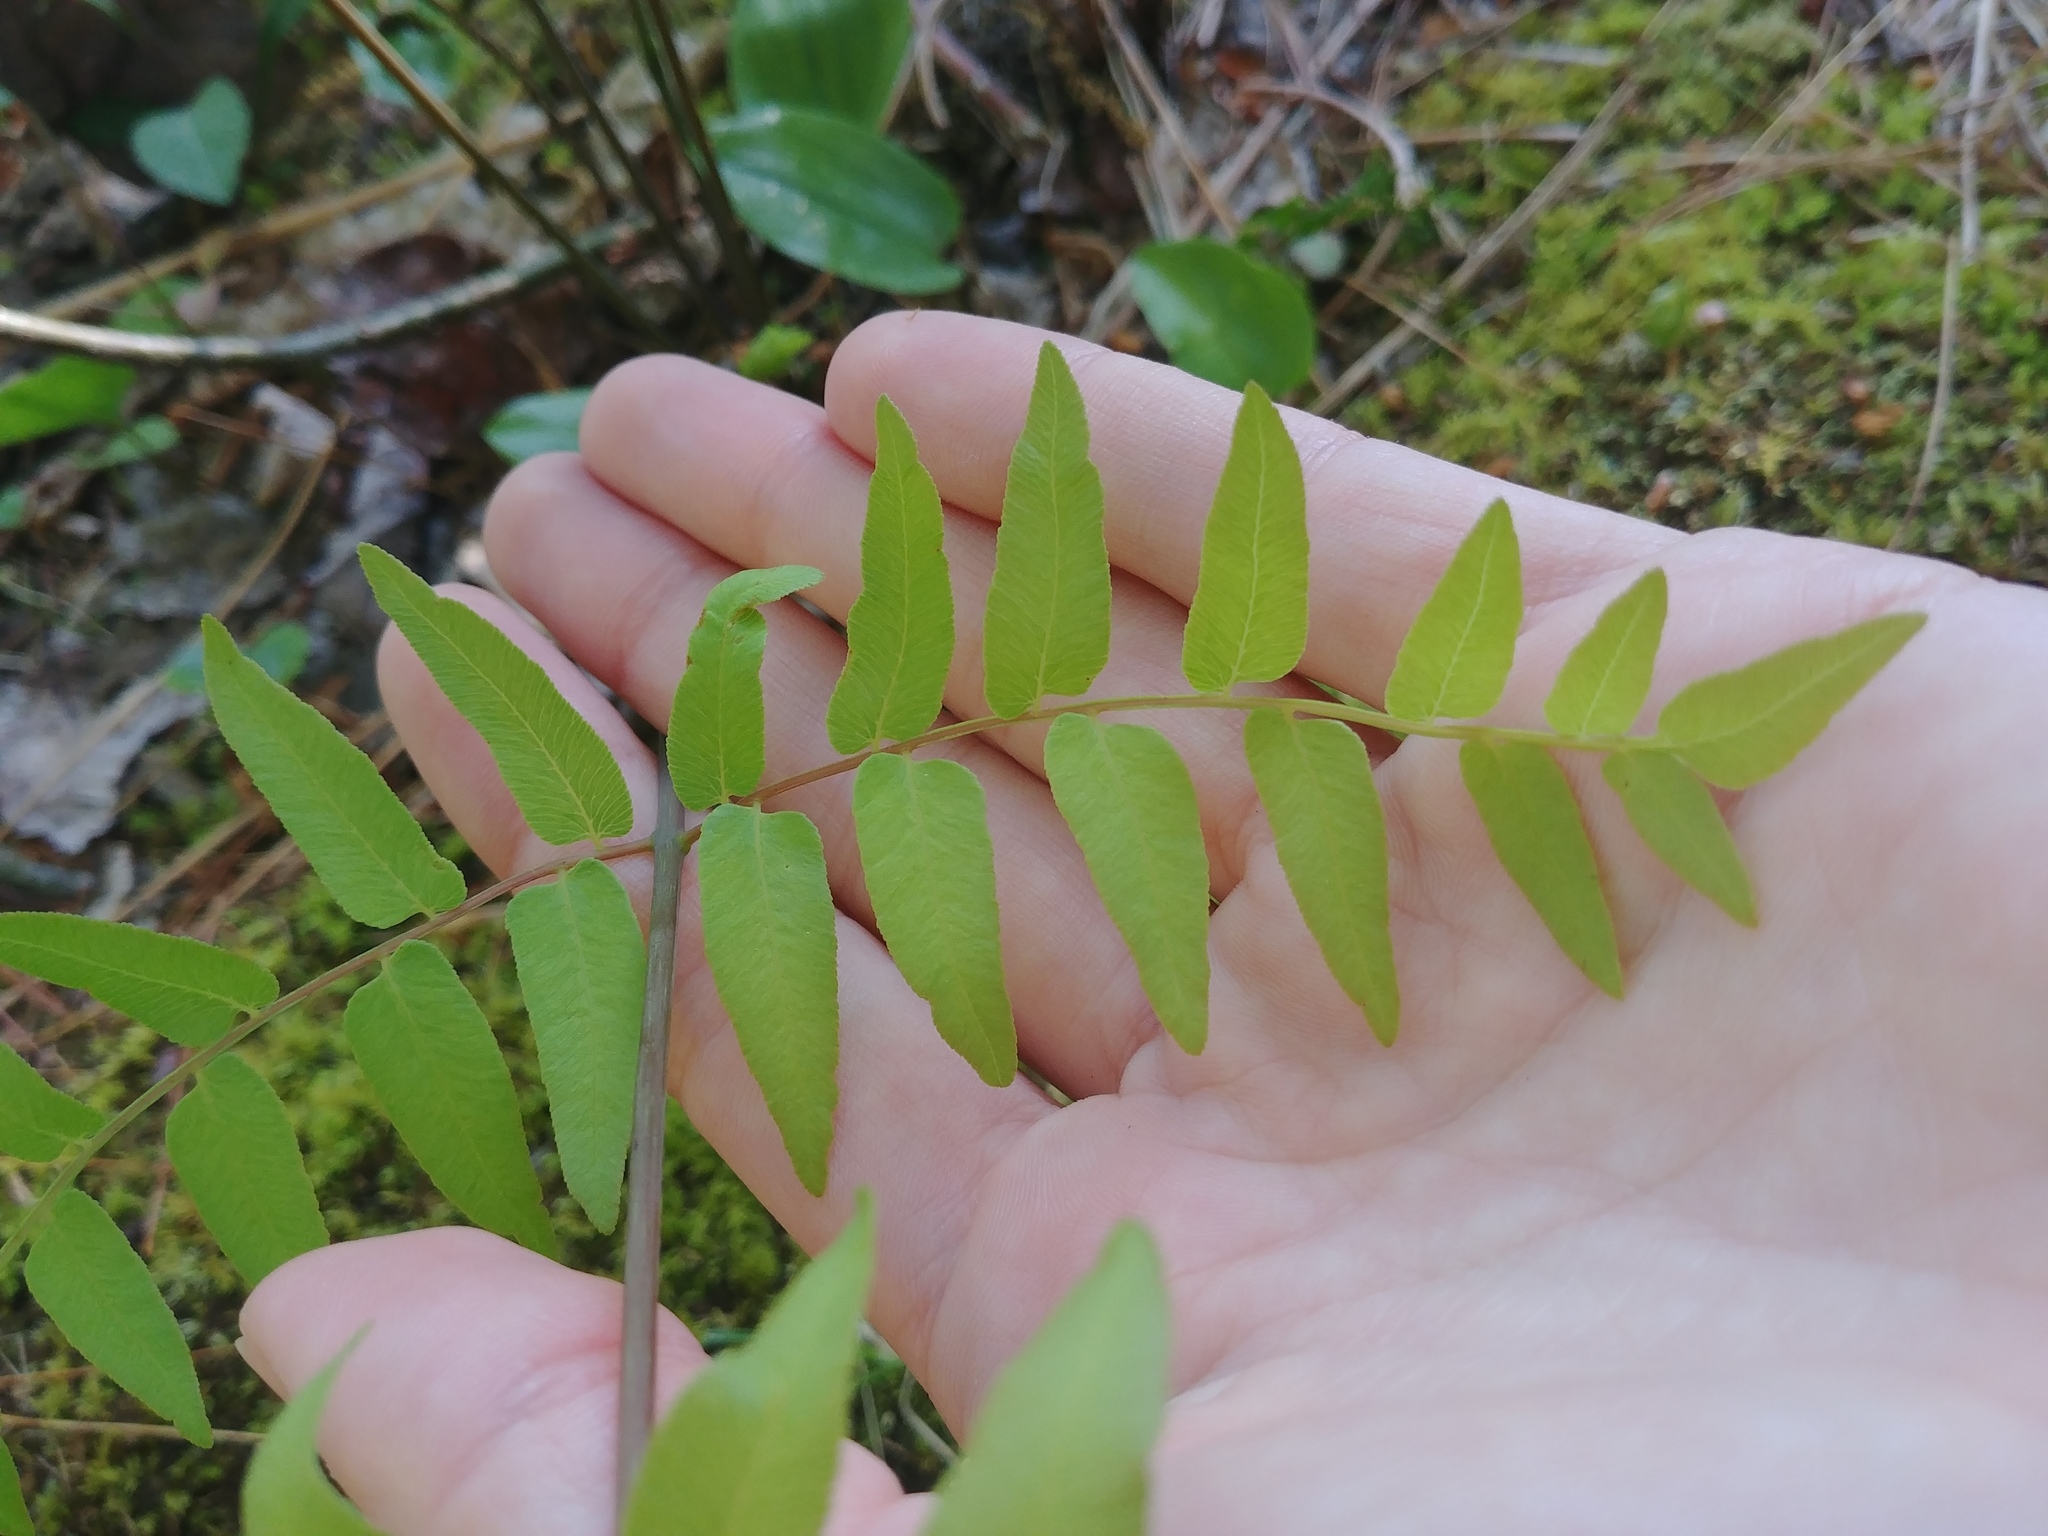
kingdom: Plantae
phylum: Tracheophyta
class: Polypodiopsida
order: Osmundales
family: Osmundaceae
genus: Osmunda
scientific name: Osmunda spectabilis
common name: American royal fern
